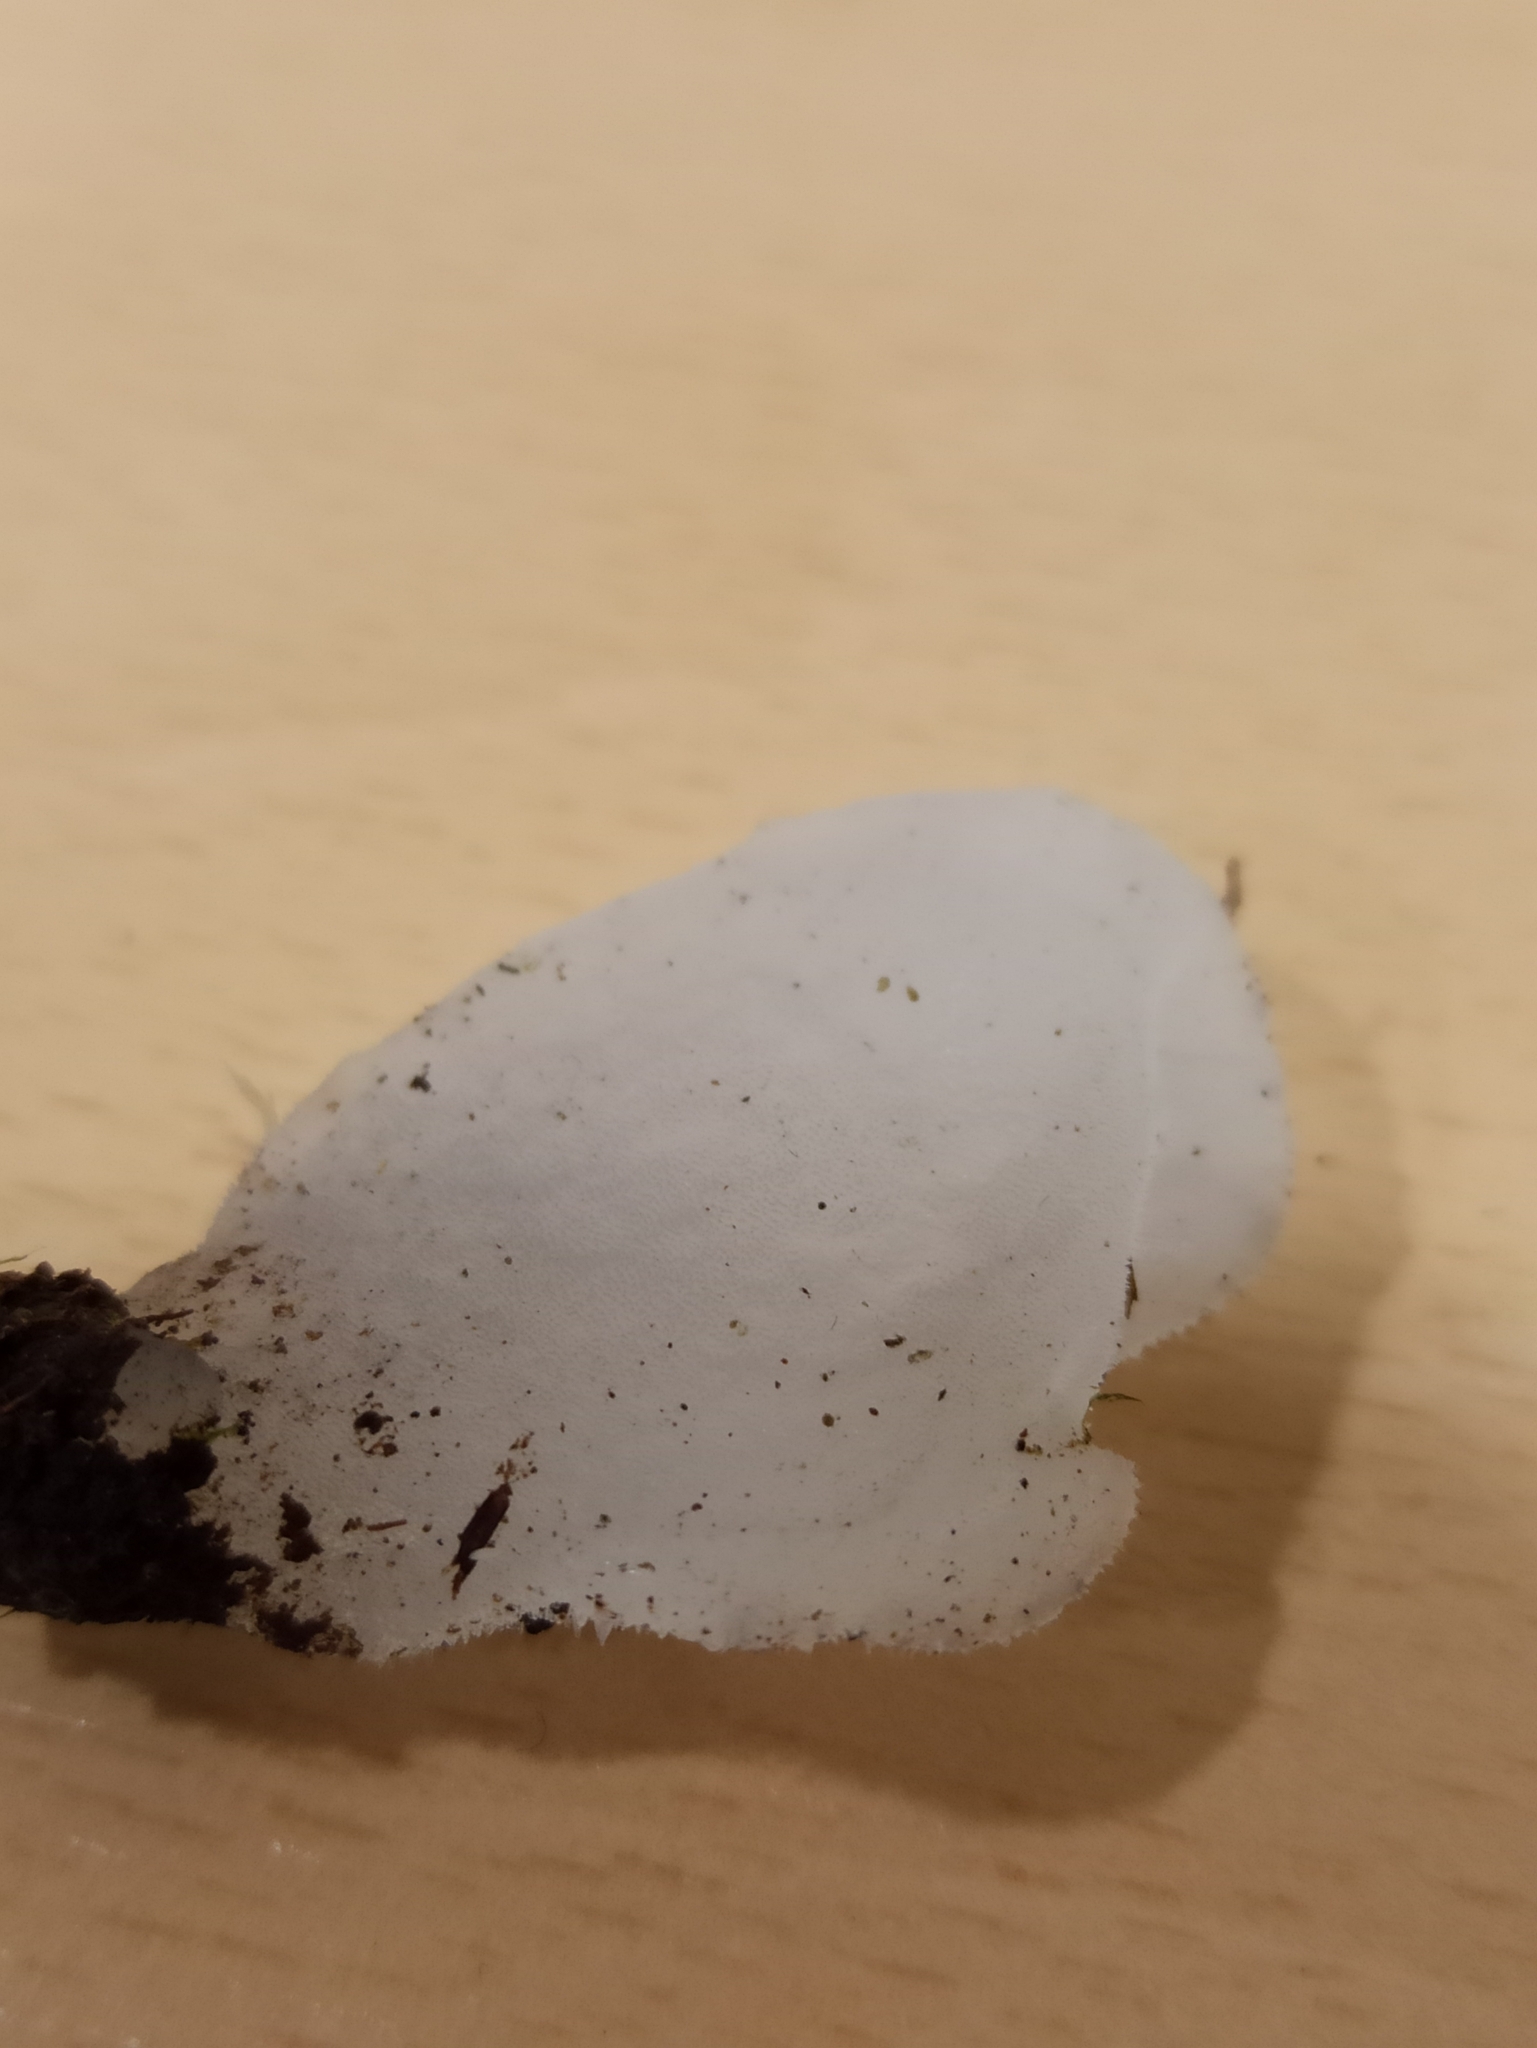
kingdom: Fungi
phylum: Basidiomycota
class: Agaricomycetes
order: Auriculariales
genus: Pseudohydnum
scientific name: Pseudohydnum gelatinosum
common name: Jelly tongue
